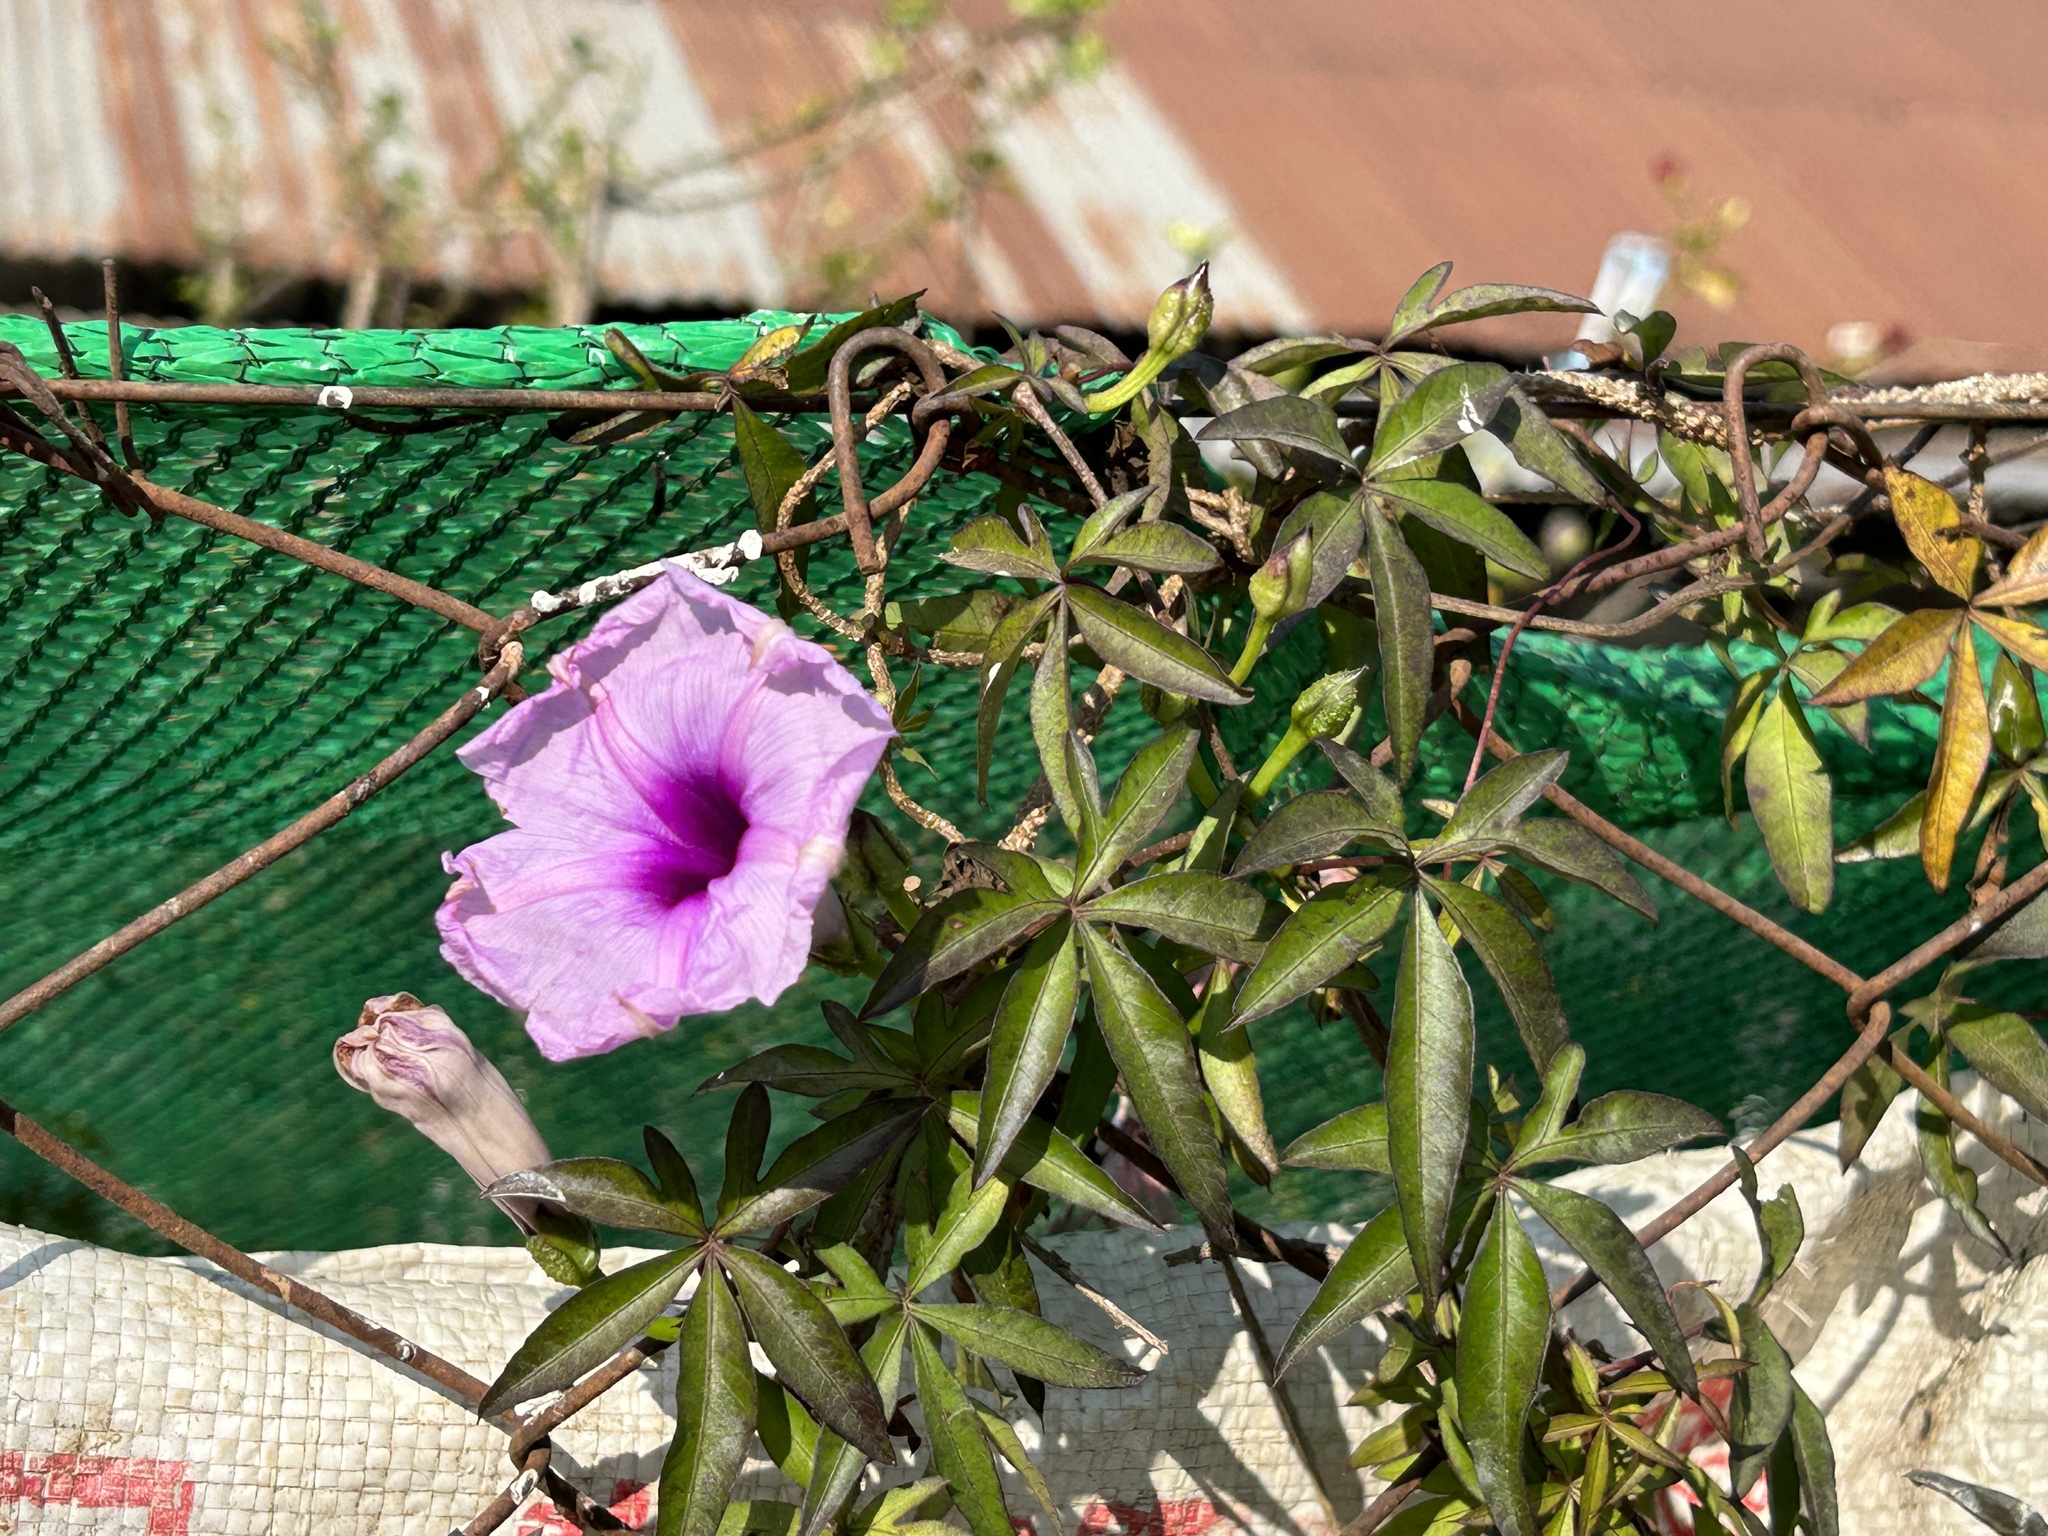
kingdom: Plantae
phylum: Tracheophyta
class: Magnoliopsida
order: Solanales
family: Convolvulaceae
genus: Ipomoea
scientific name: Ipomoea cairica
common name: Mile a minute vine
